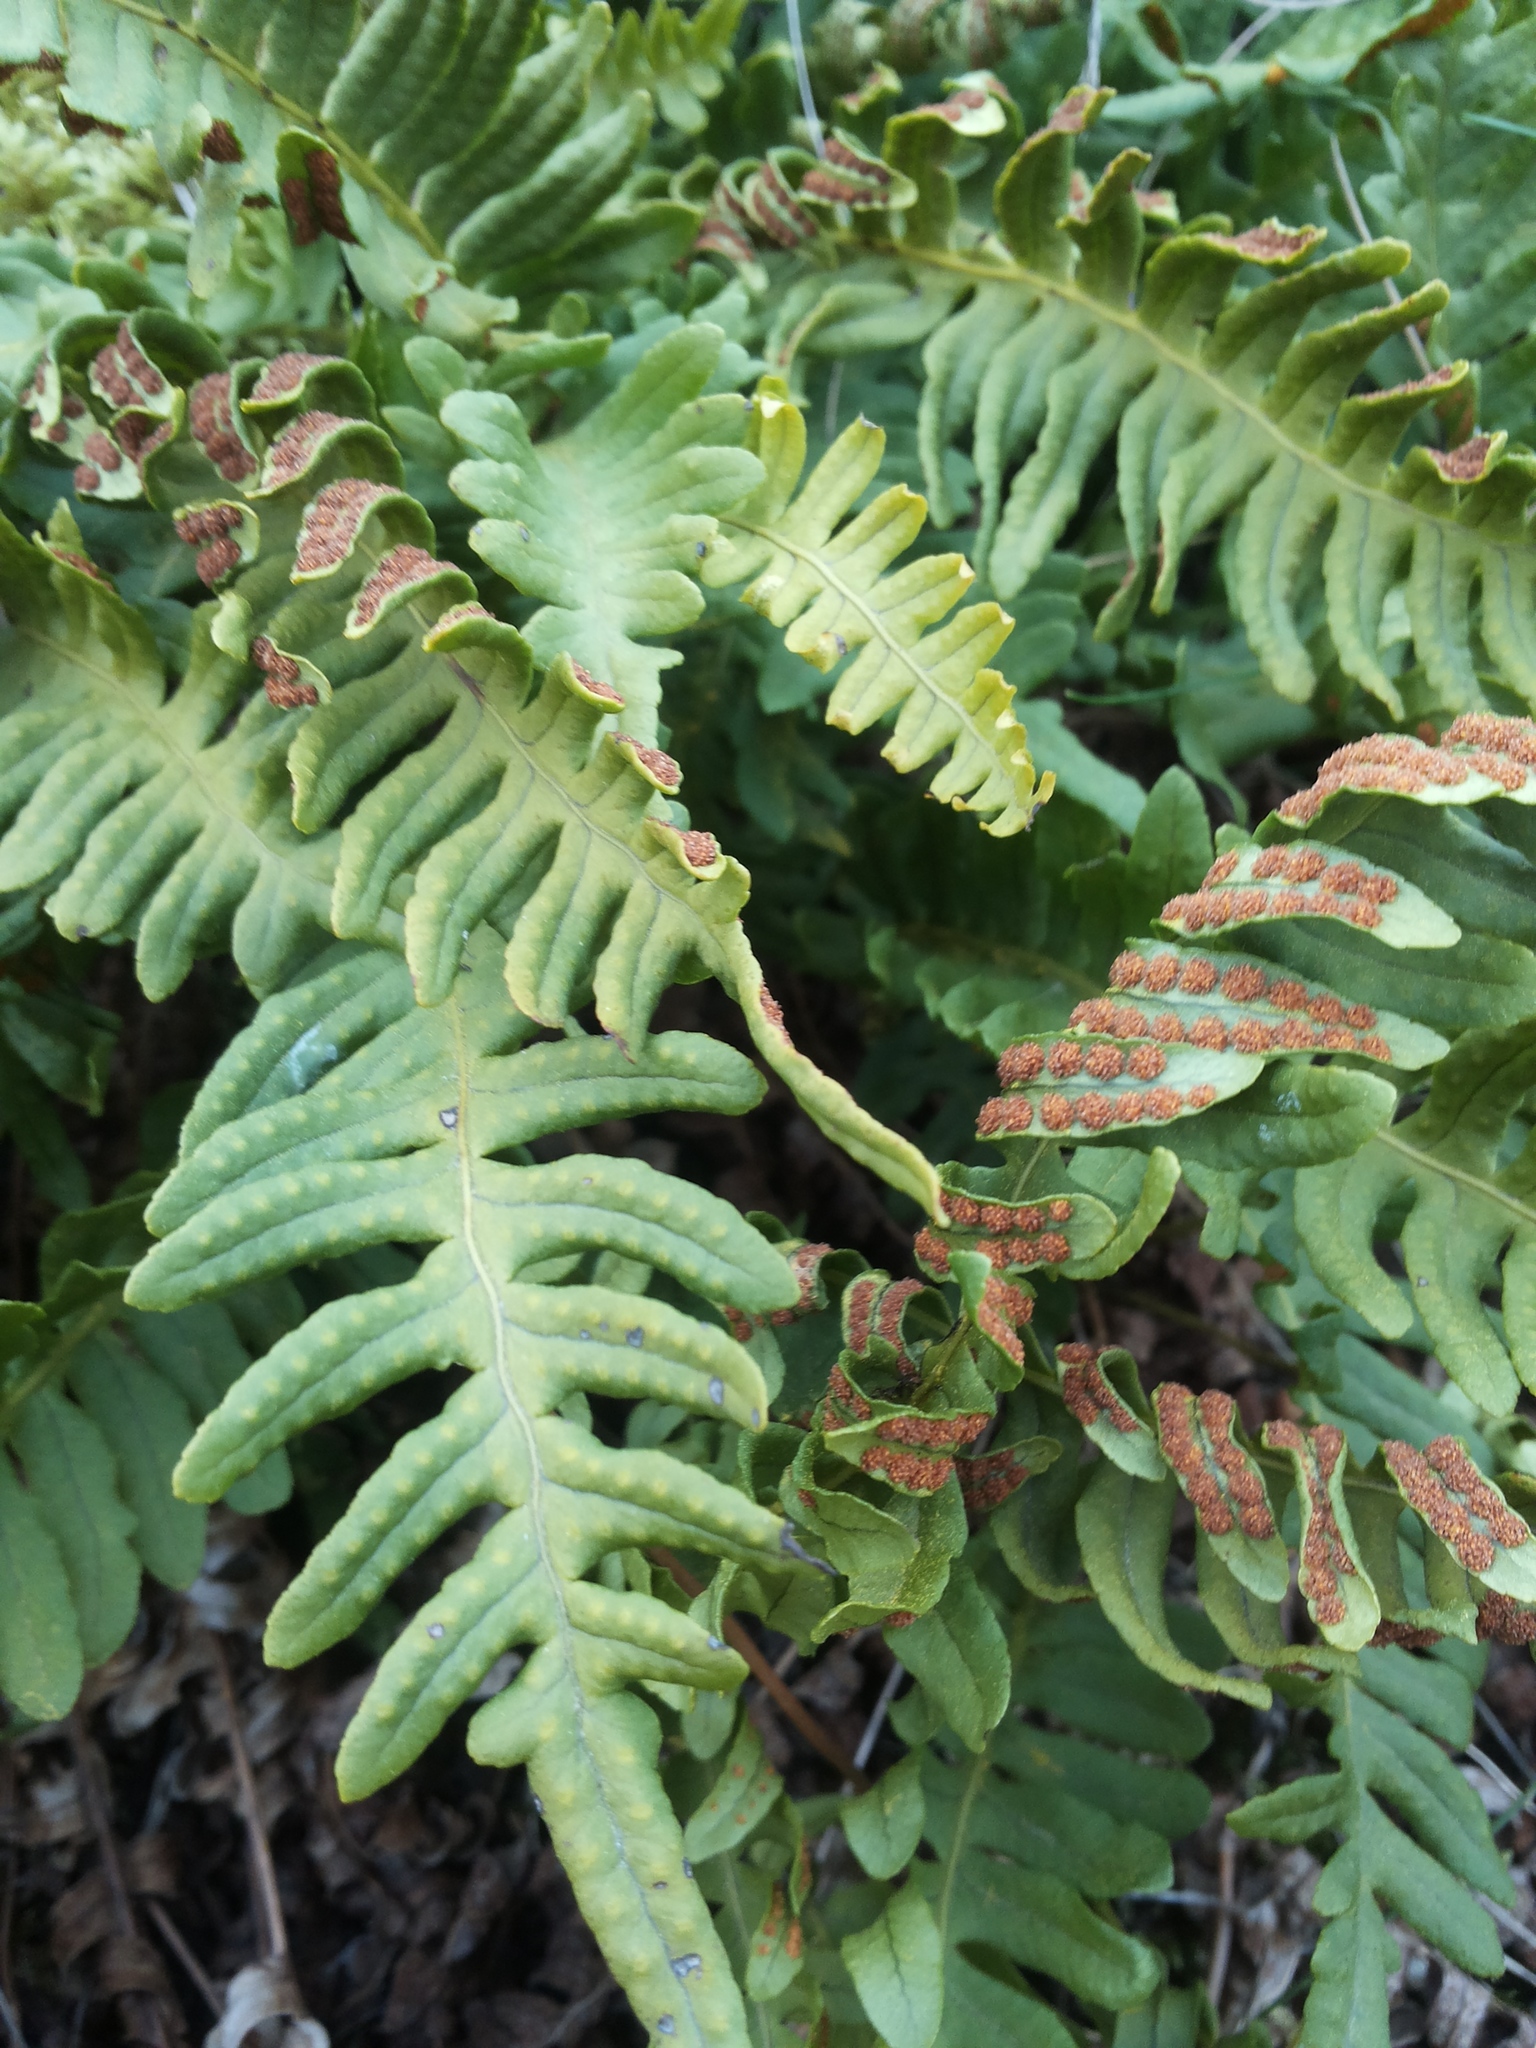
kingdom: Plantae
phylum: Tracheophyta
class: Polypodiopsida
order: Polypodiales
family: Polypodiaceae
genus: Polypodium
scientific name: Polypodium vulgare
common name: Common polypody
